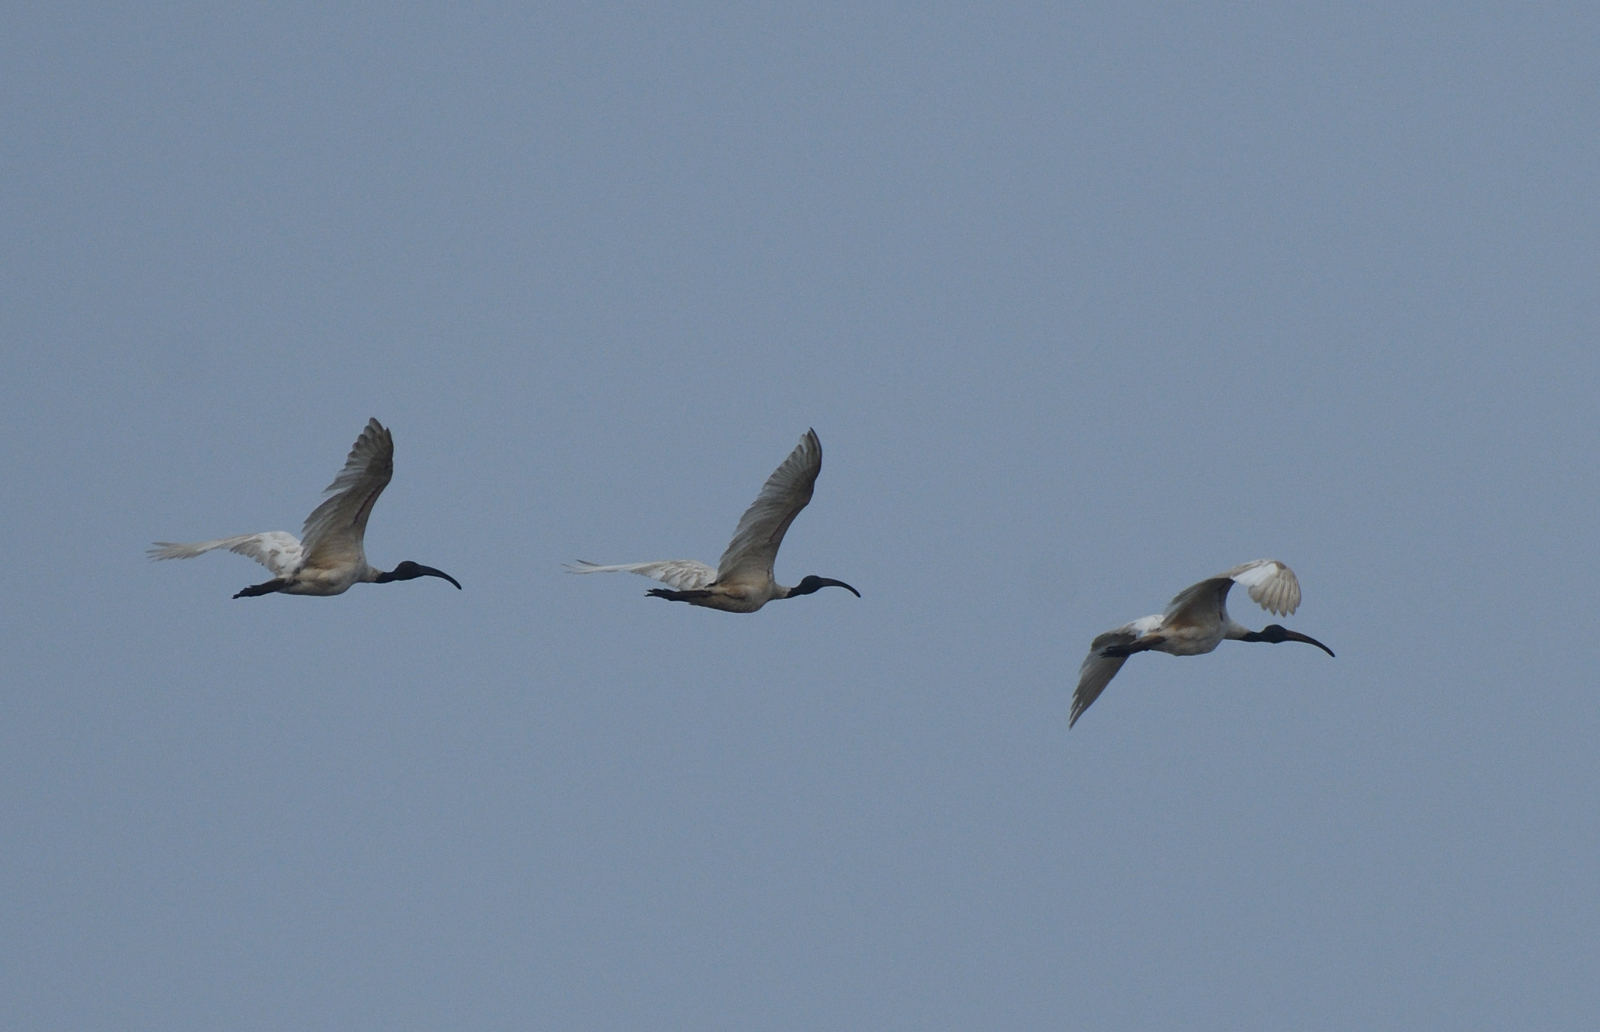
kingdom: Animalia
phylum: Chordata
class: Aves
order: Pelecaniformes
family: Threskiornithidae
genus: Threskiornis
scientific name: Threskiornis melanocephalus
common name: Black-headed ibis
